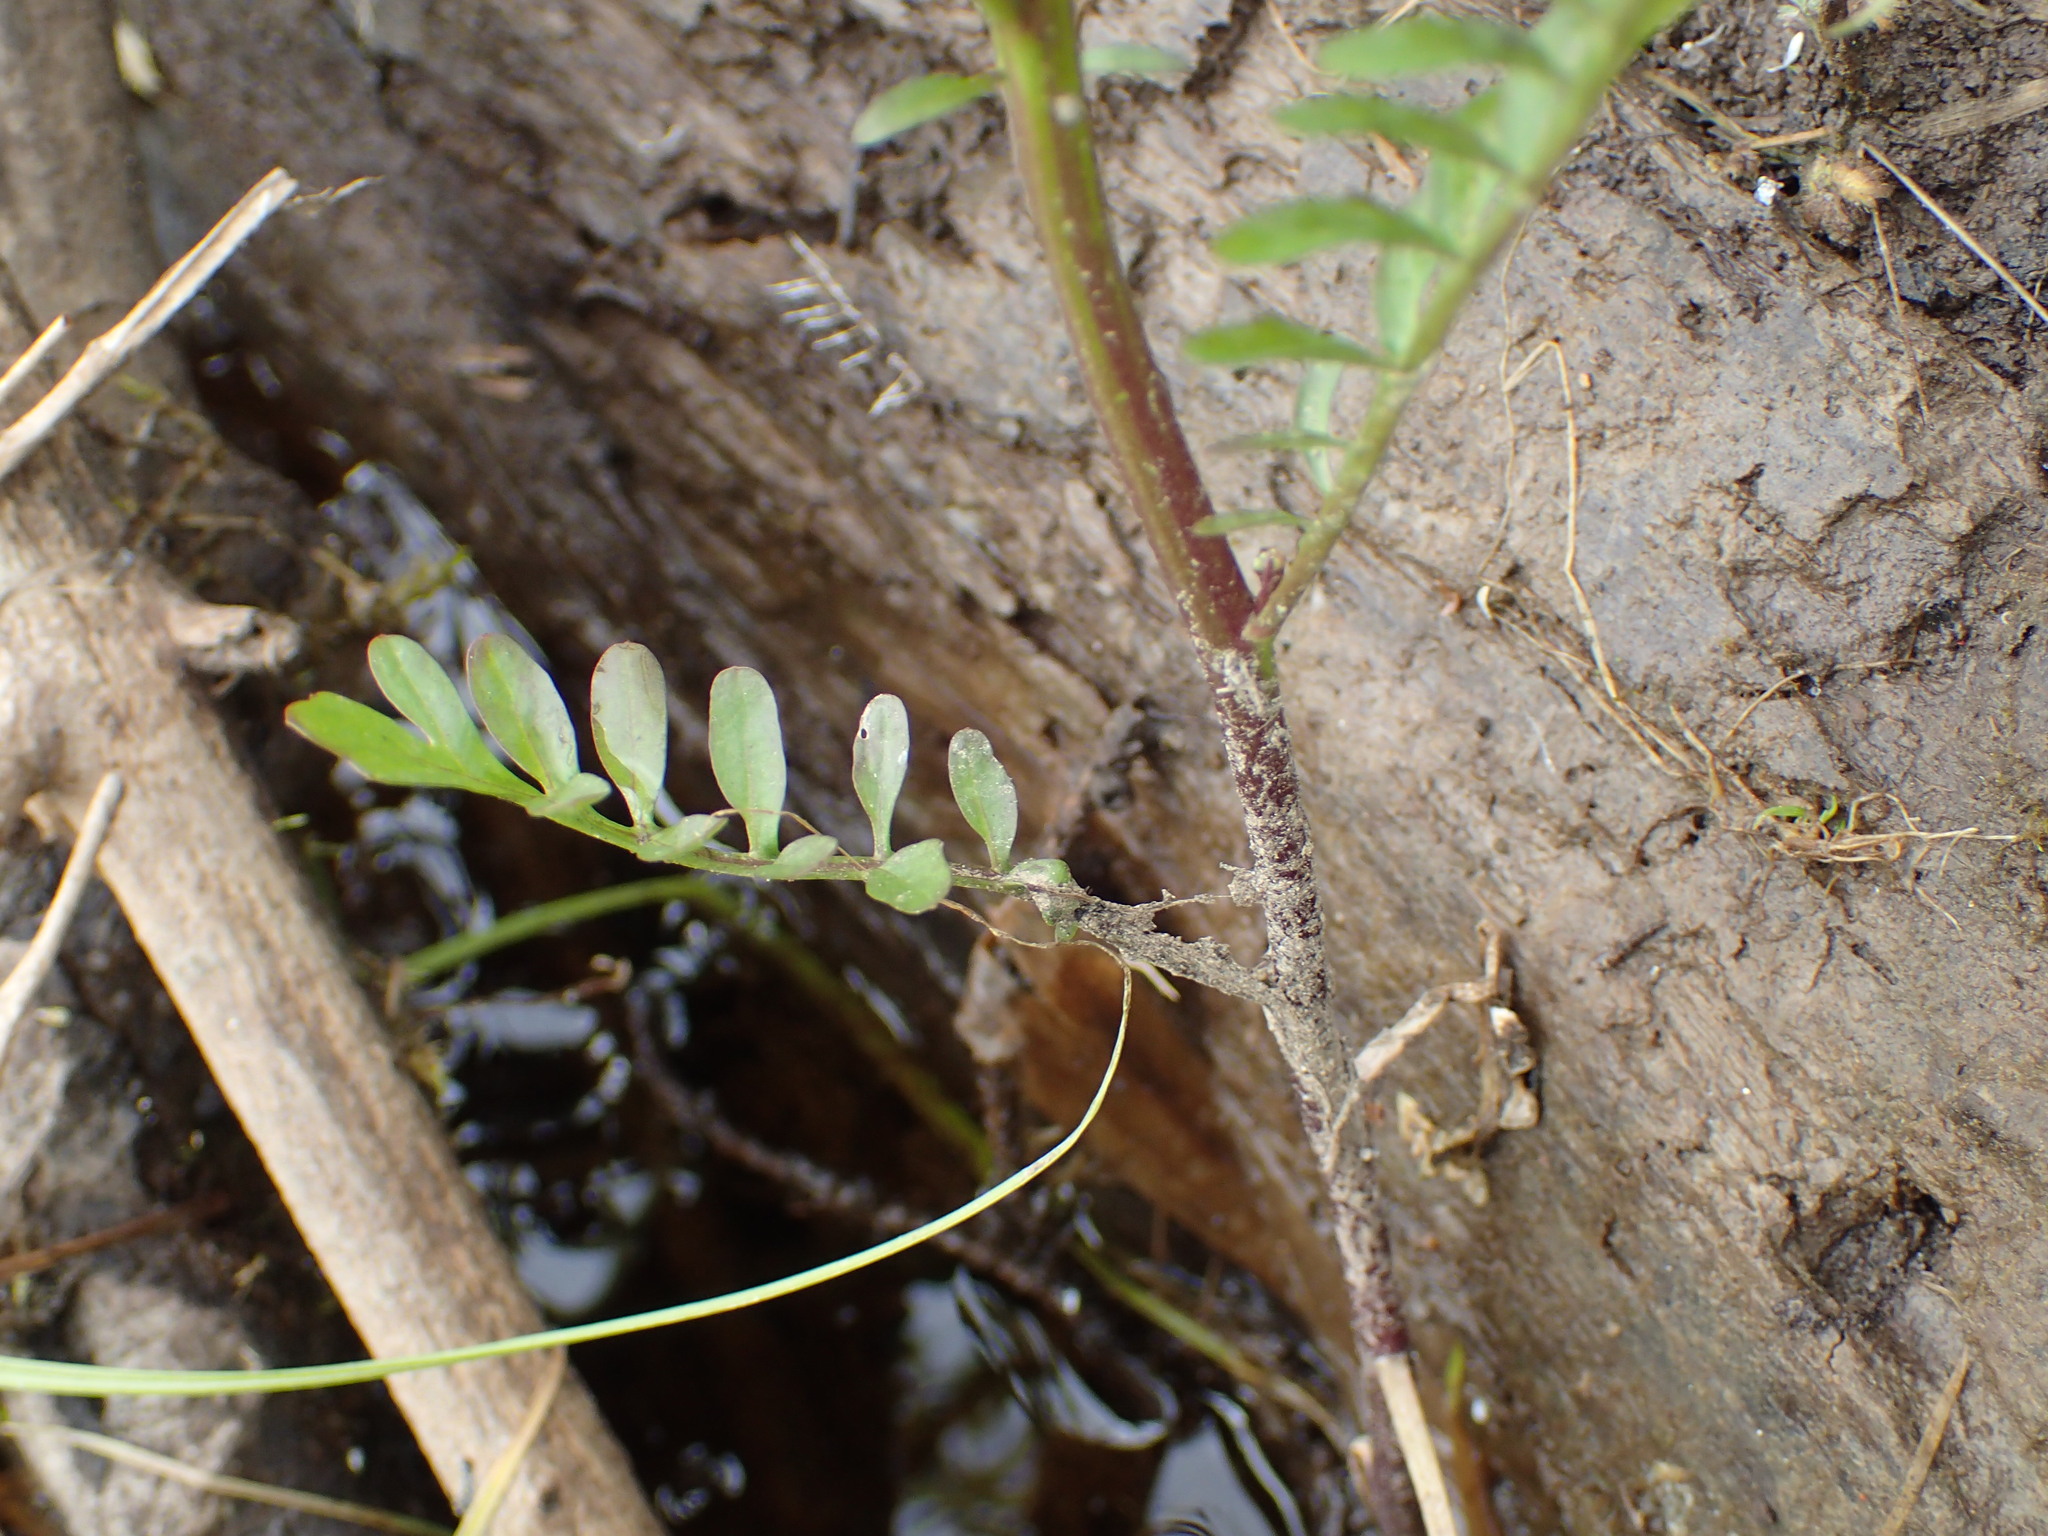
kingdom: Plantae
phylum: Tracheophyta
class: Magnoliopsida
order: Brassicales
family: Brassicaceae
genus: Cardamine
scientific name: Cardamine pensylvanica
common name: Pennsylvania bittercress
